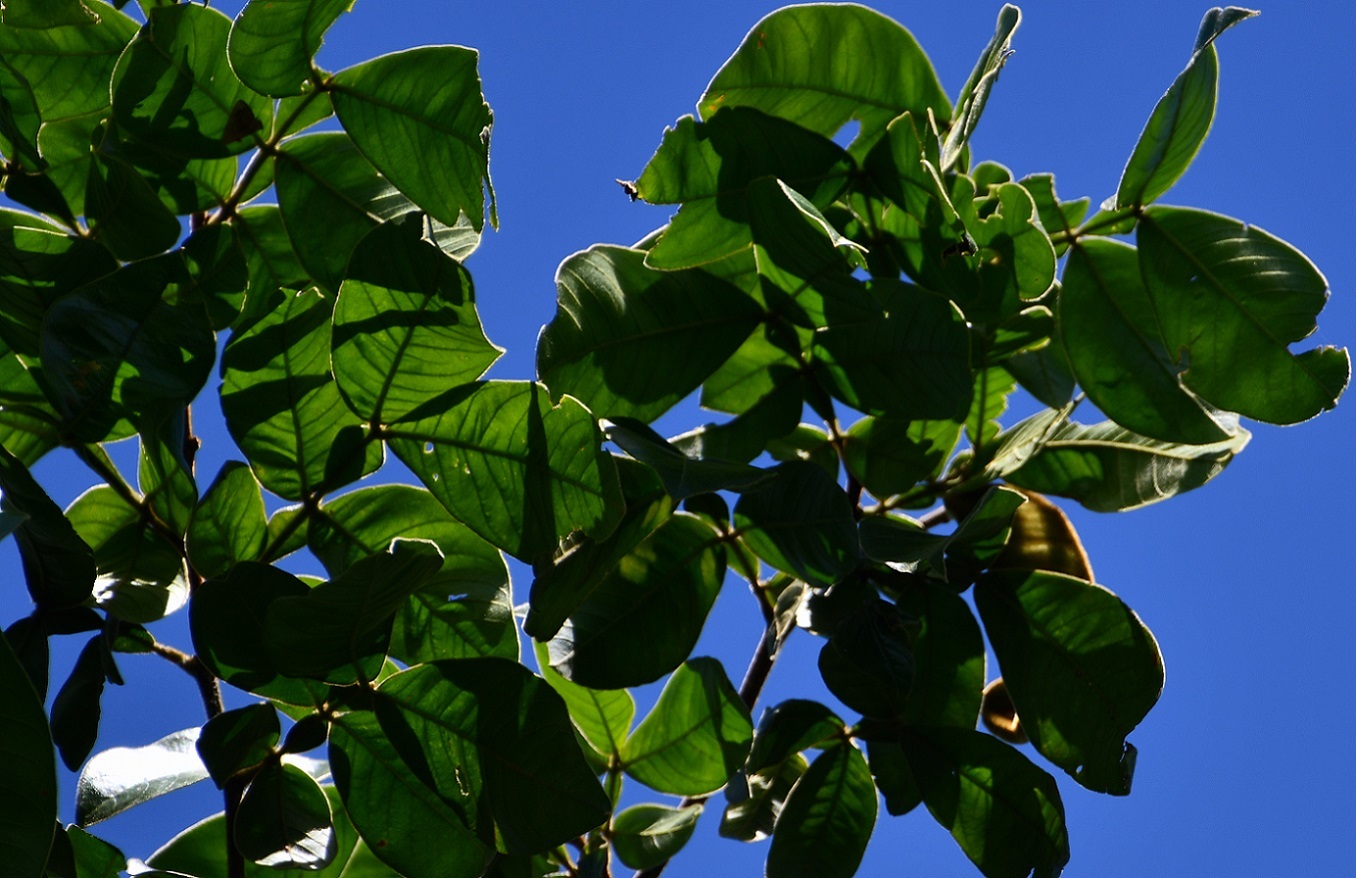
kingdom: Plantae
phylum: Tracheophyta
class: Magnoliopsida
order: Fabales
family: Fabaceae
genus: Inga
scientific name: Inga chiapensis
